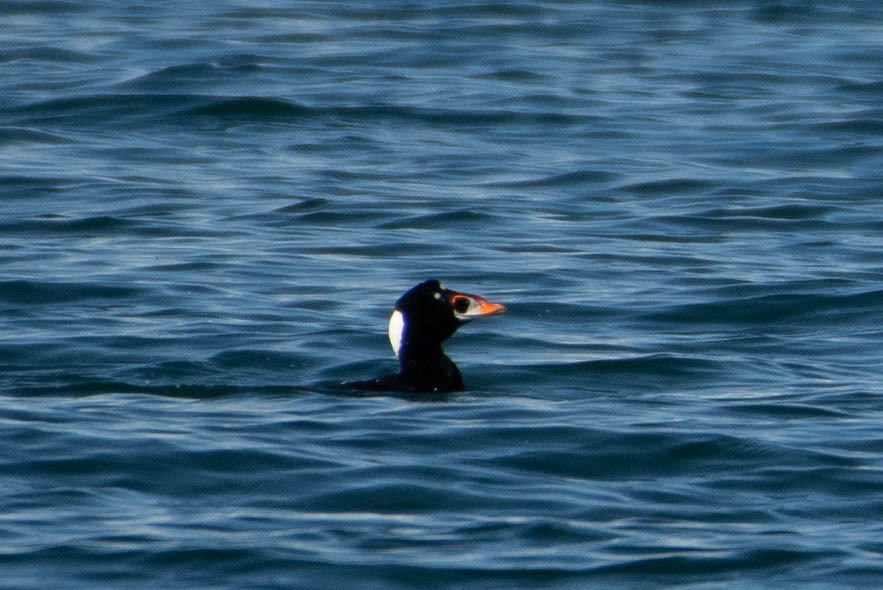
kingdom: Animalia
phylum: Chordata
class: Aves
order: Anseriformes
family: Anatidae
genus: Melanitta
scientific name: Melanitta perspicillata
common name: Surf scoter
